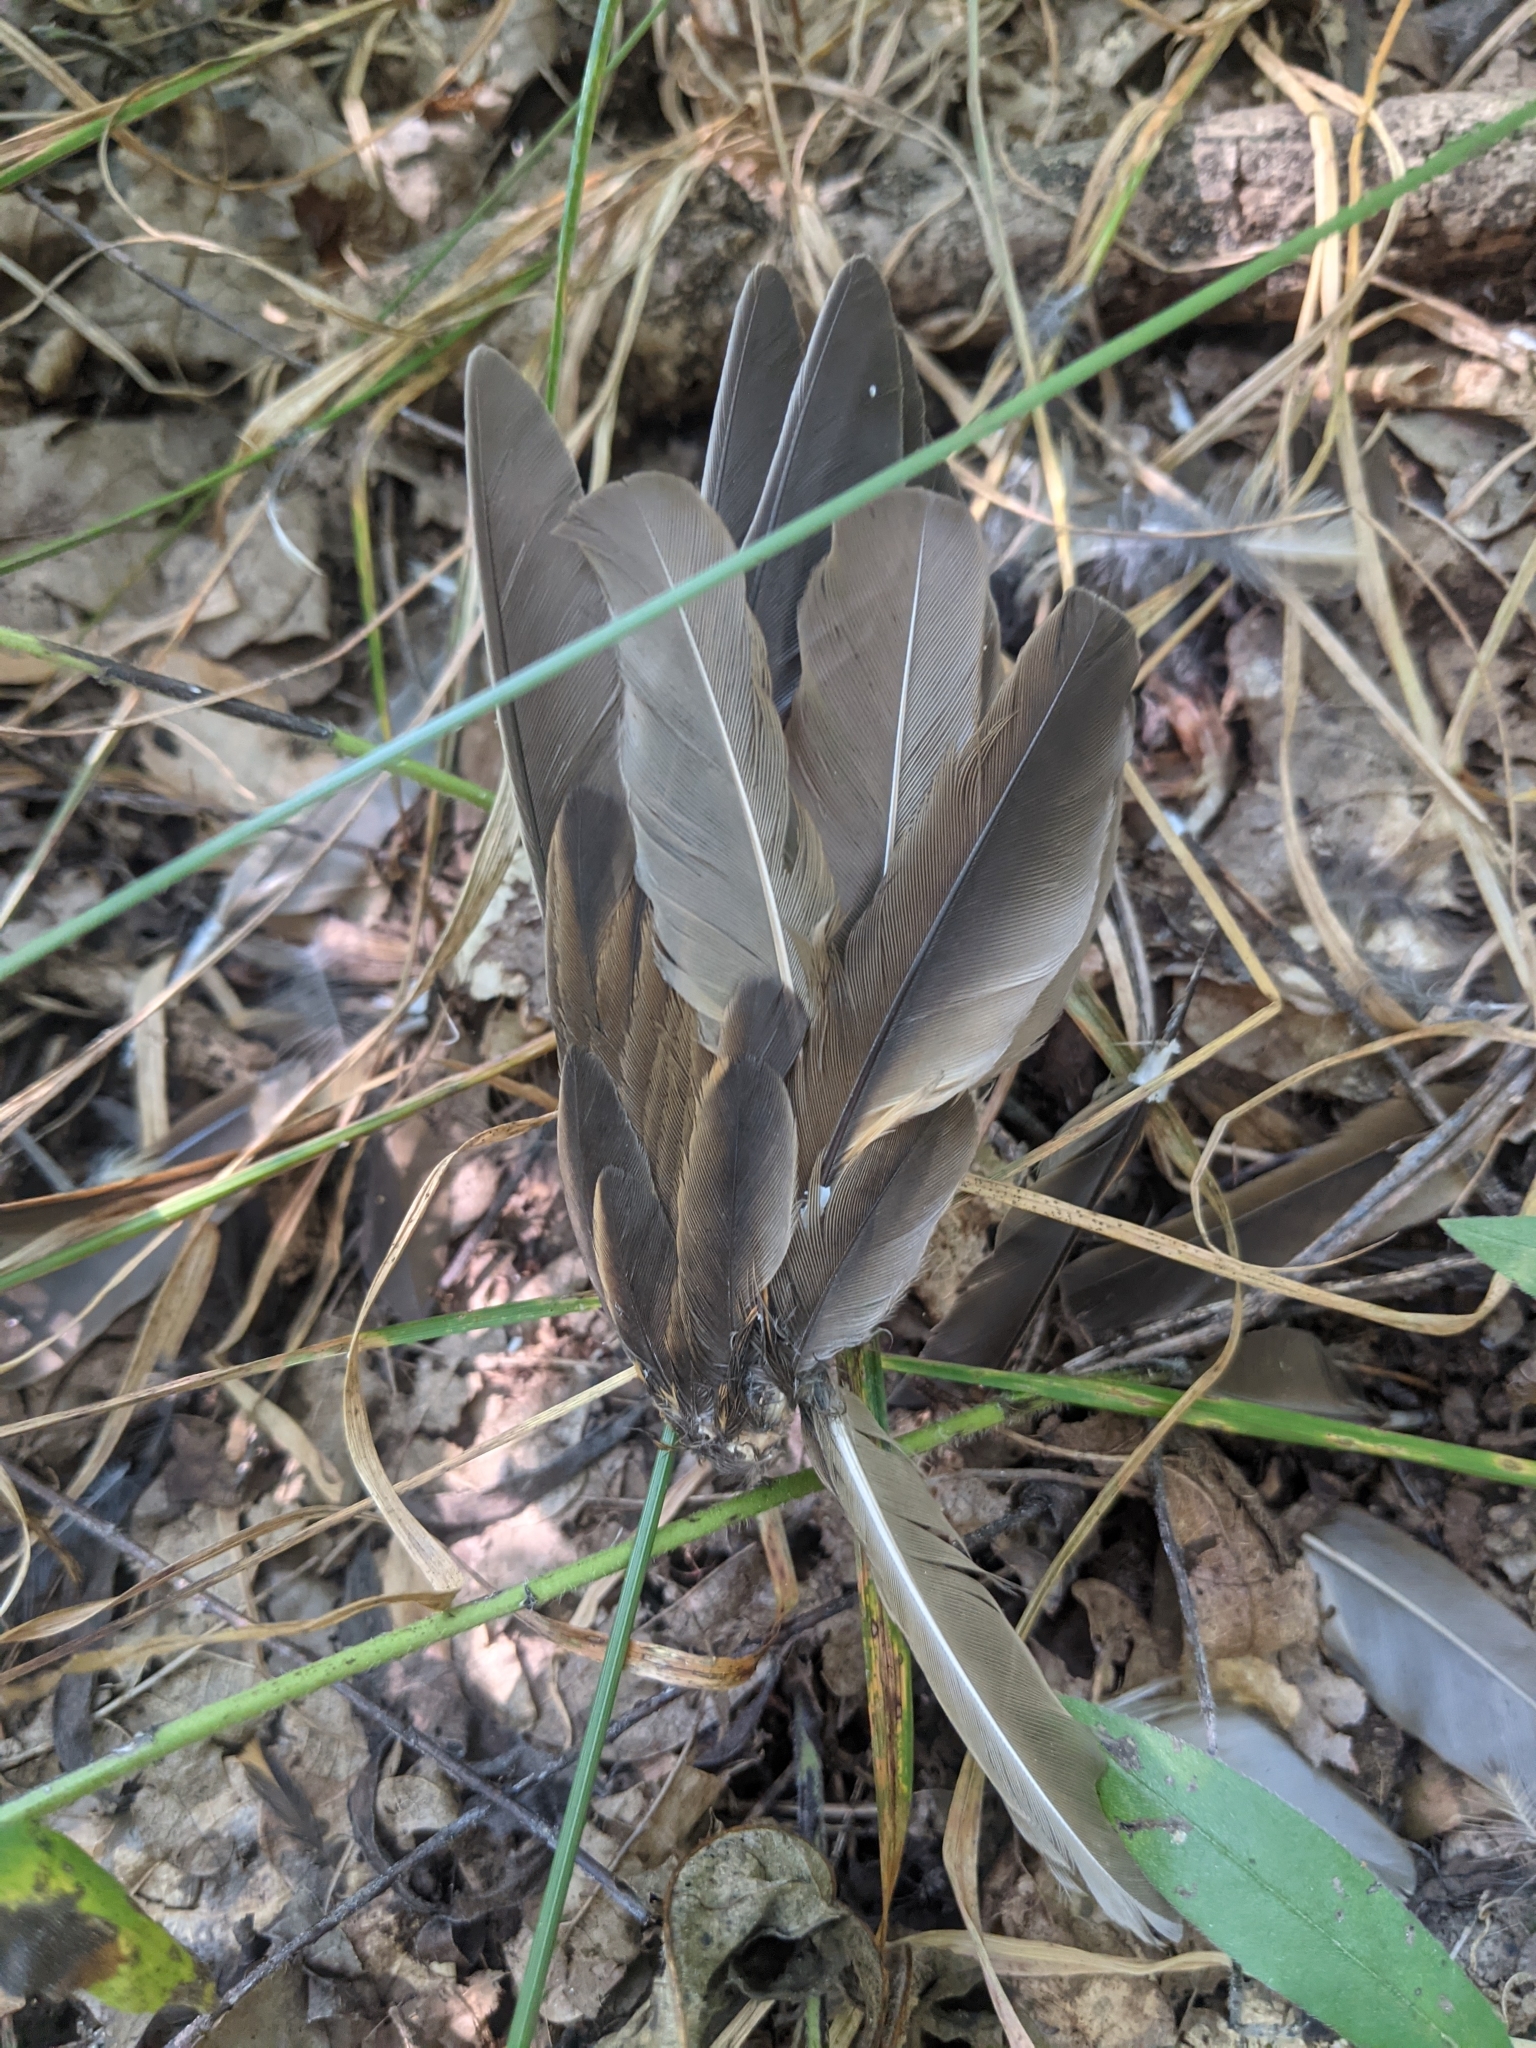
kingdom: Animalia
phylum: Chordata
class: Aves
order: Passeriformes
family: Turdidae
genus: Turdus
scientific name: Turdus philomelos
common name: Song thrush
